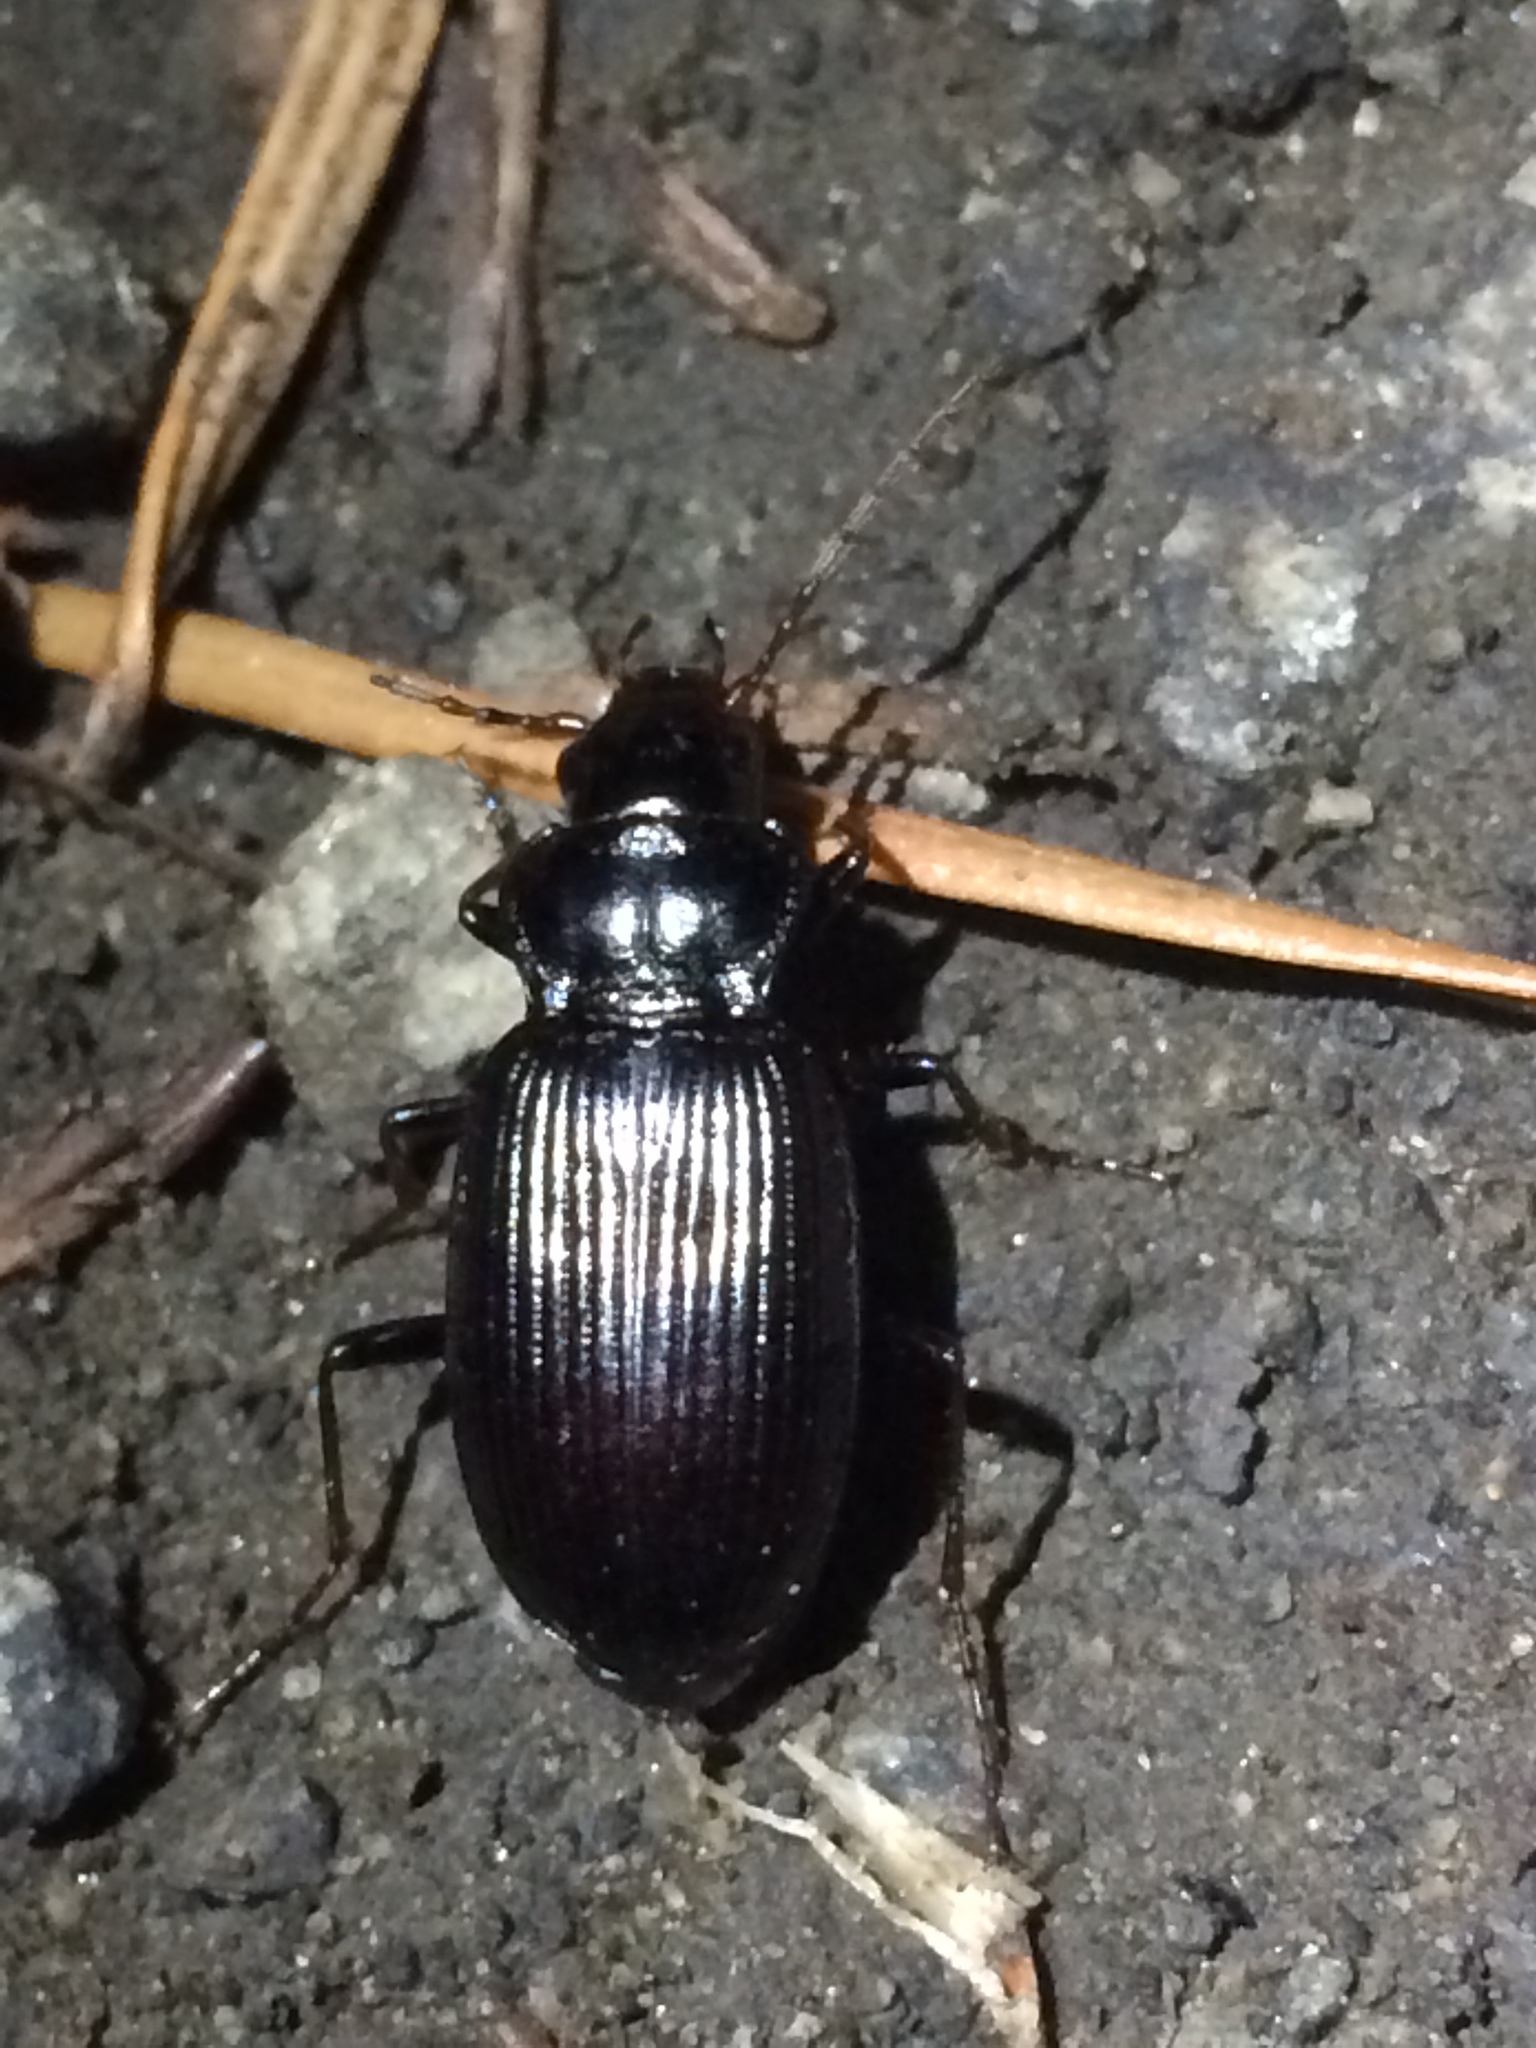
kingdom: Animalia
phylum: Arthropoda
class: Insecta
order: Coleoptera
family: Carabidae
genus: Nebria
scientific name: Nebria brevicollis
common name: Short-necked gazelle beetle
